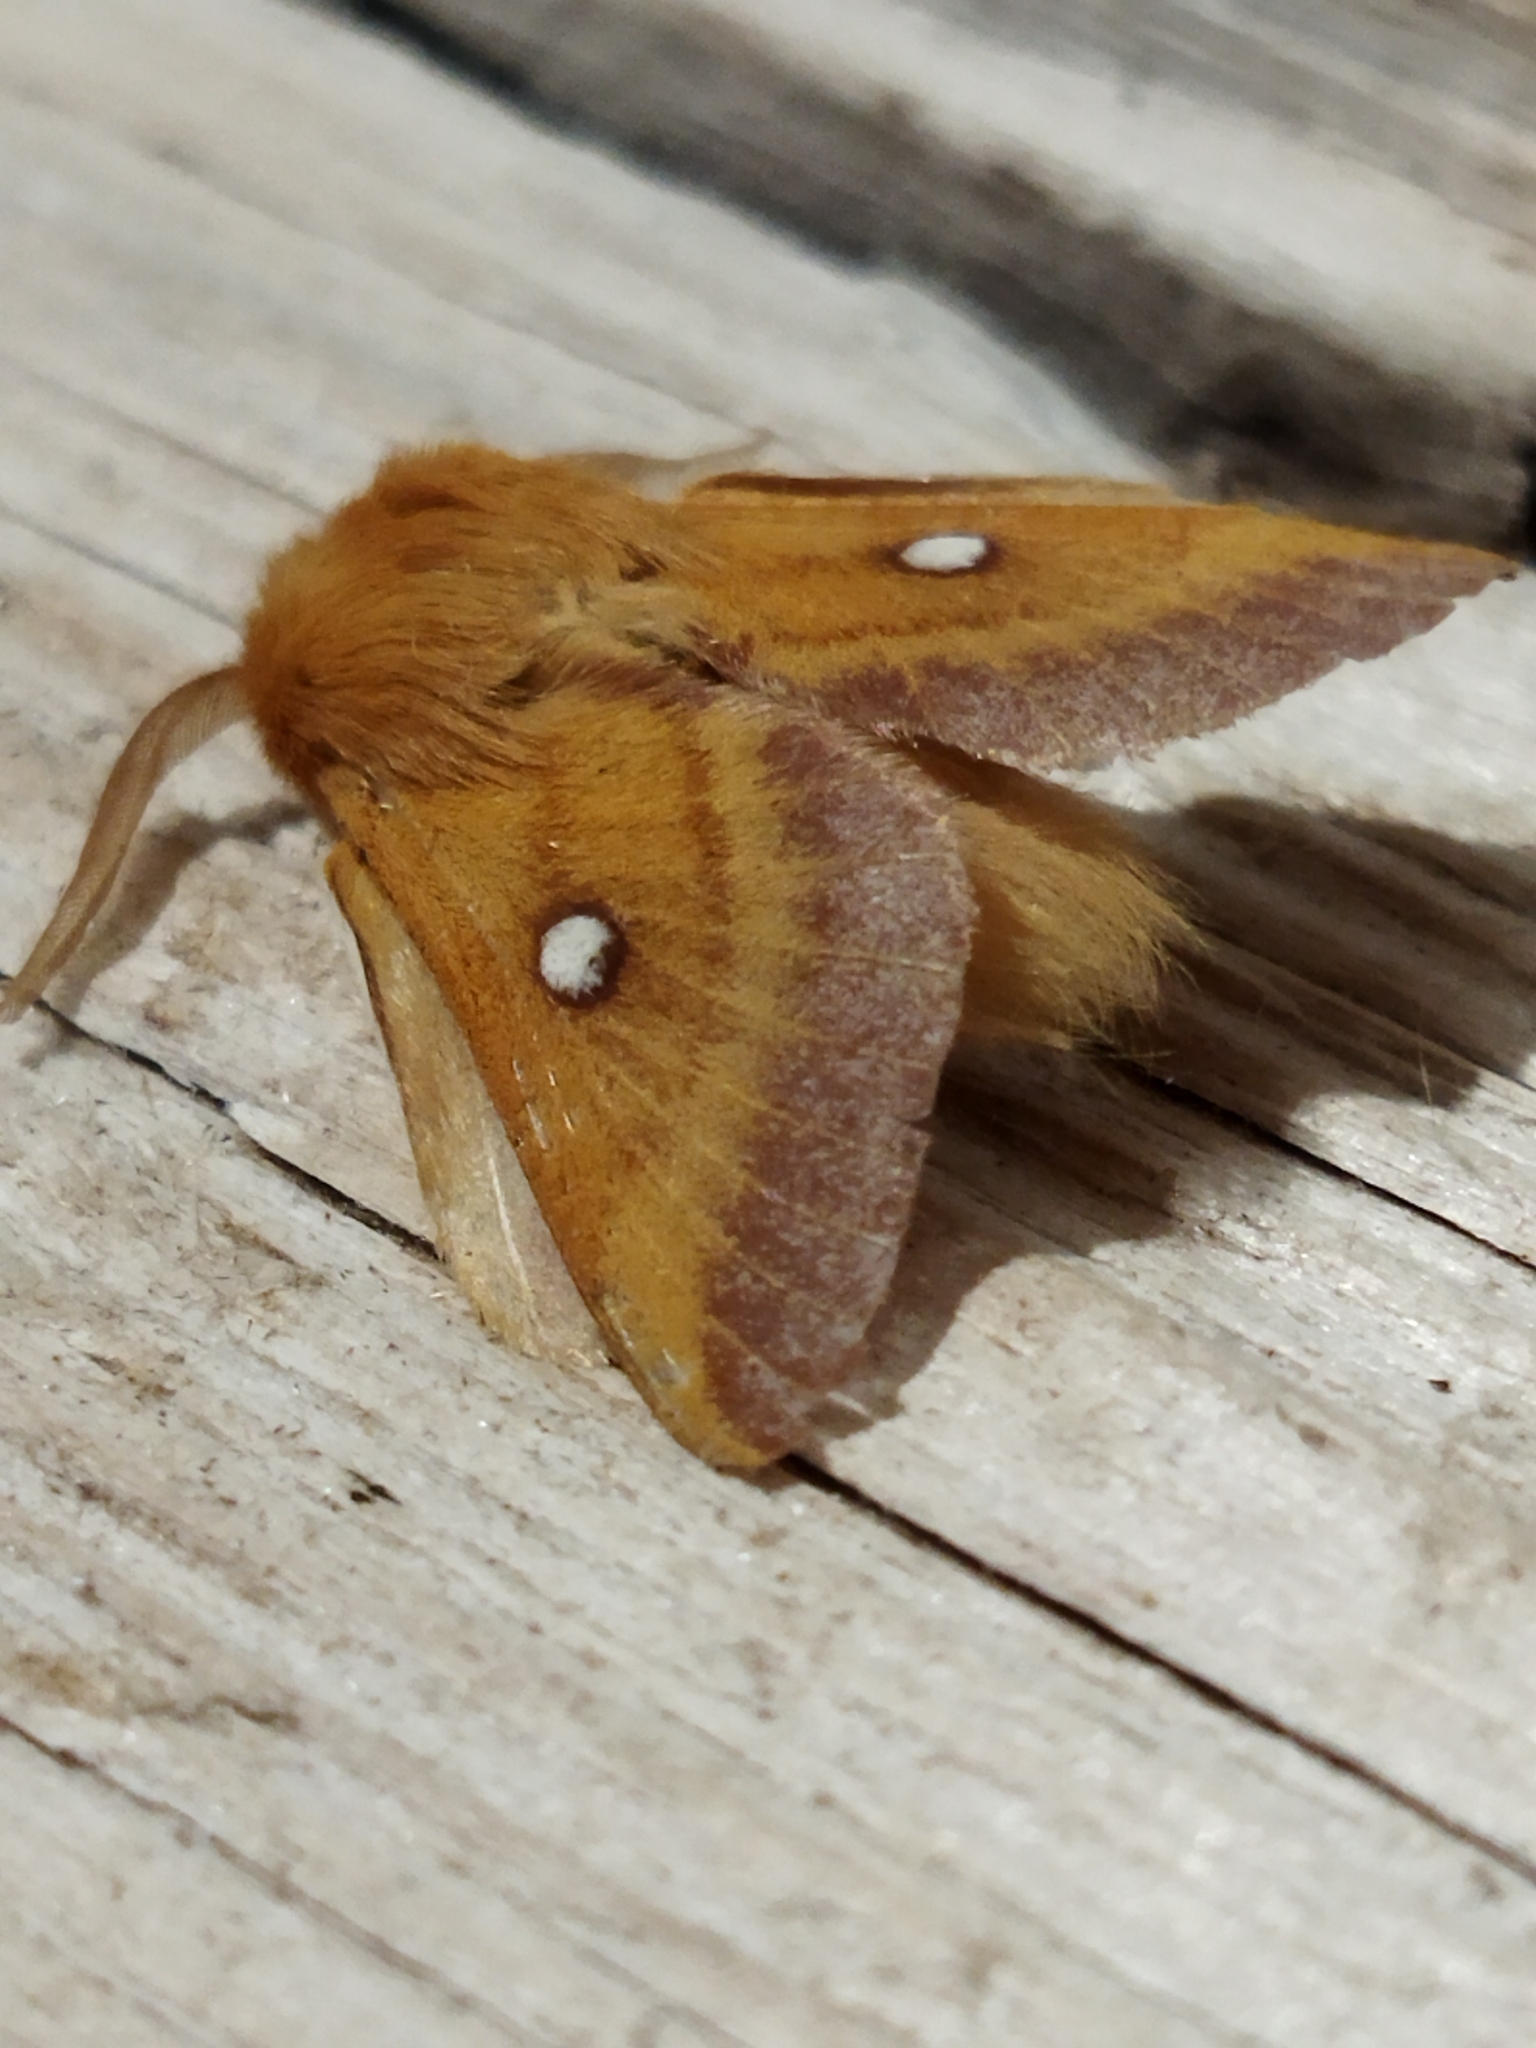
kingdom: Animalia
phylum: Arthropoda
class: Insecta
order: Lepidoptera
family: Lasiocampidae
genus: Eriogaster
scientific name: Eriogaster catax
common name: Eastern eggar
